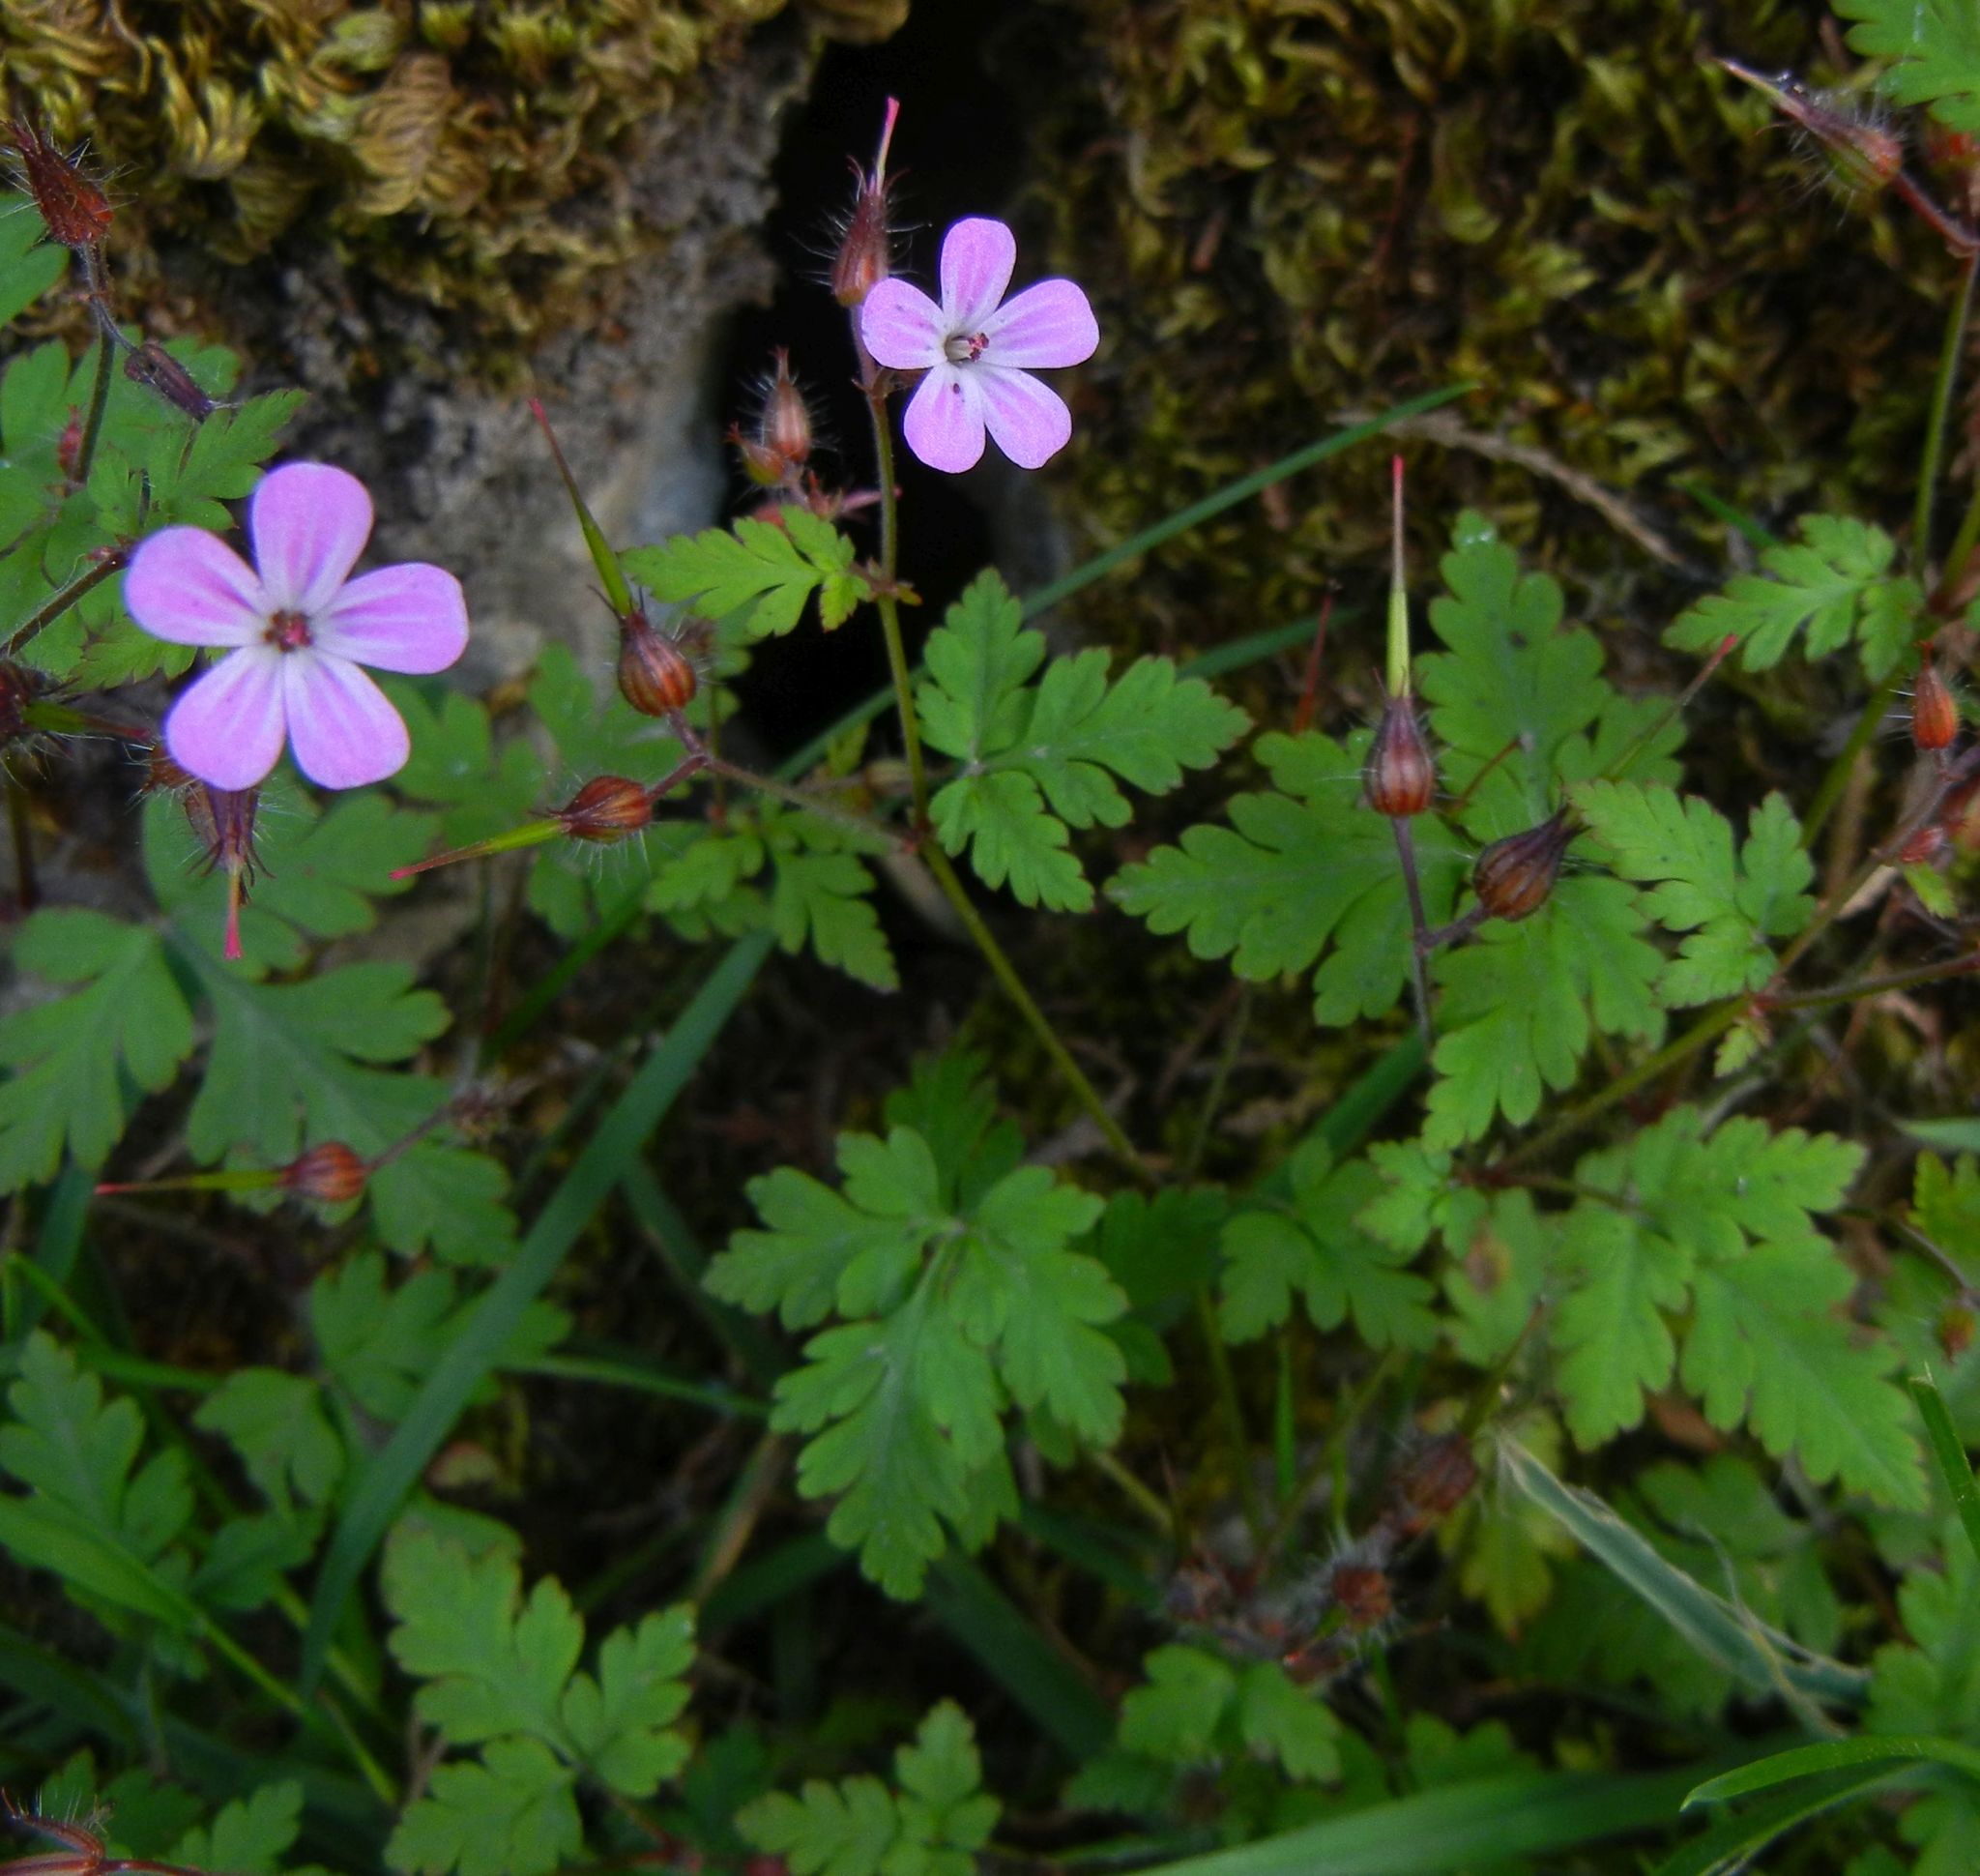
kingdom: Plantae
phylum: Tracheophyta
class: Magnoliopsida
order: Geraniales
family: Geraniaceae
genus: Geranium
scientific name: Geranium robertianum
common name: Herb-robert
